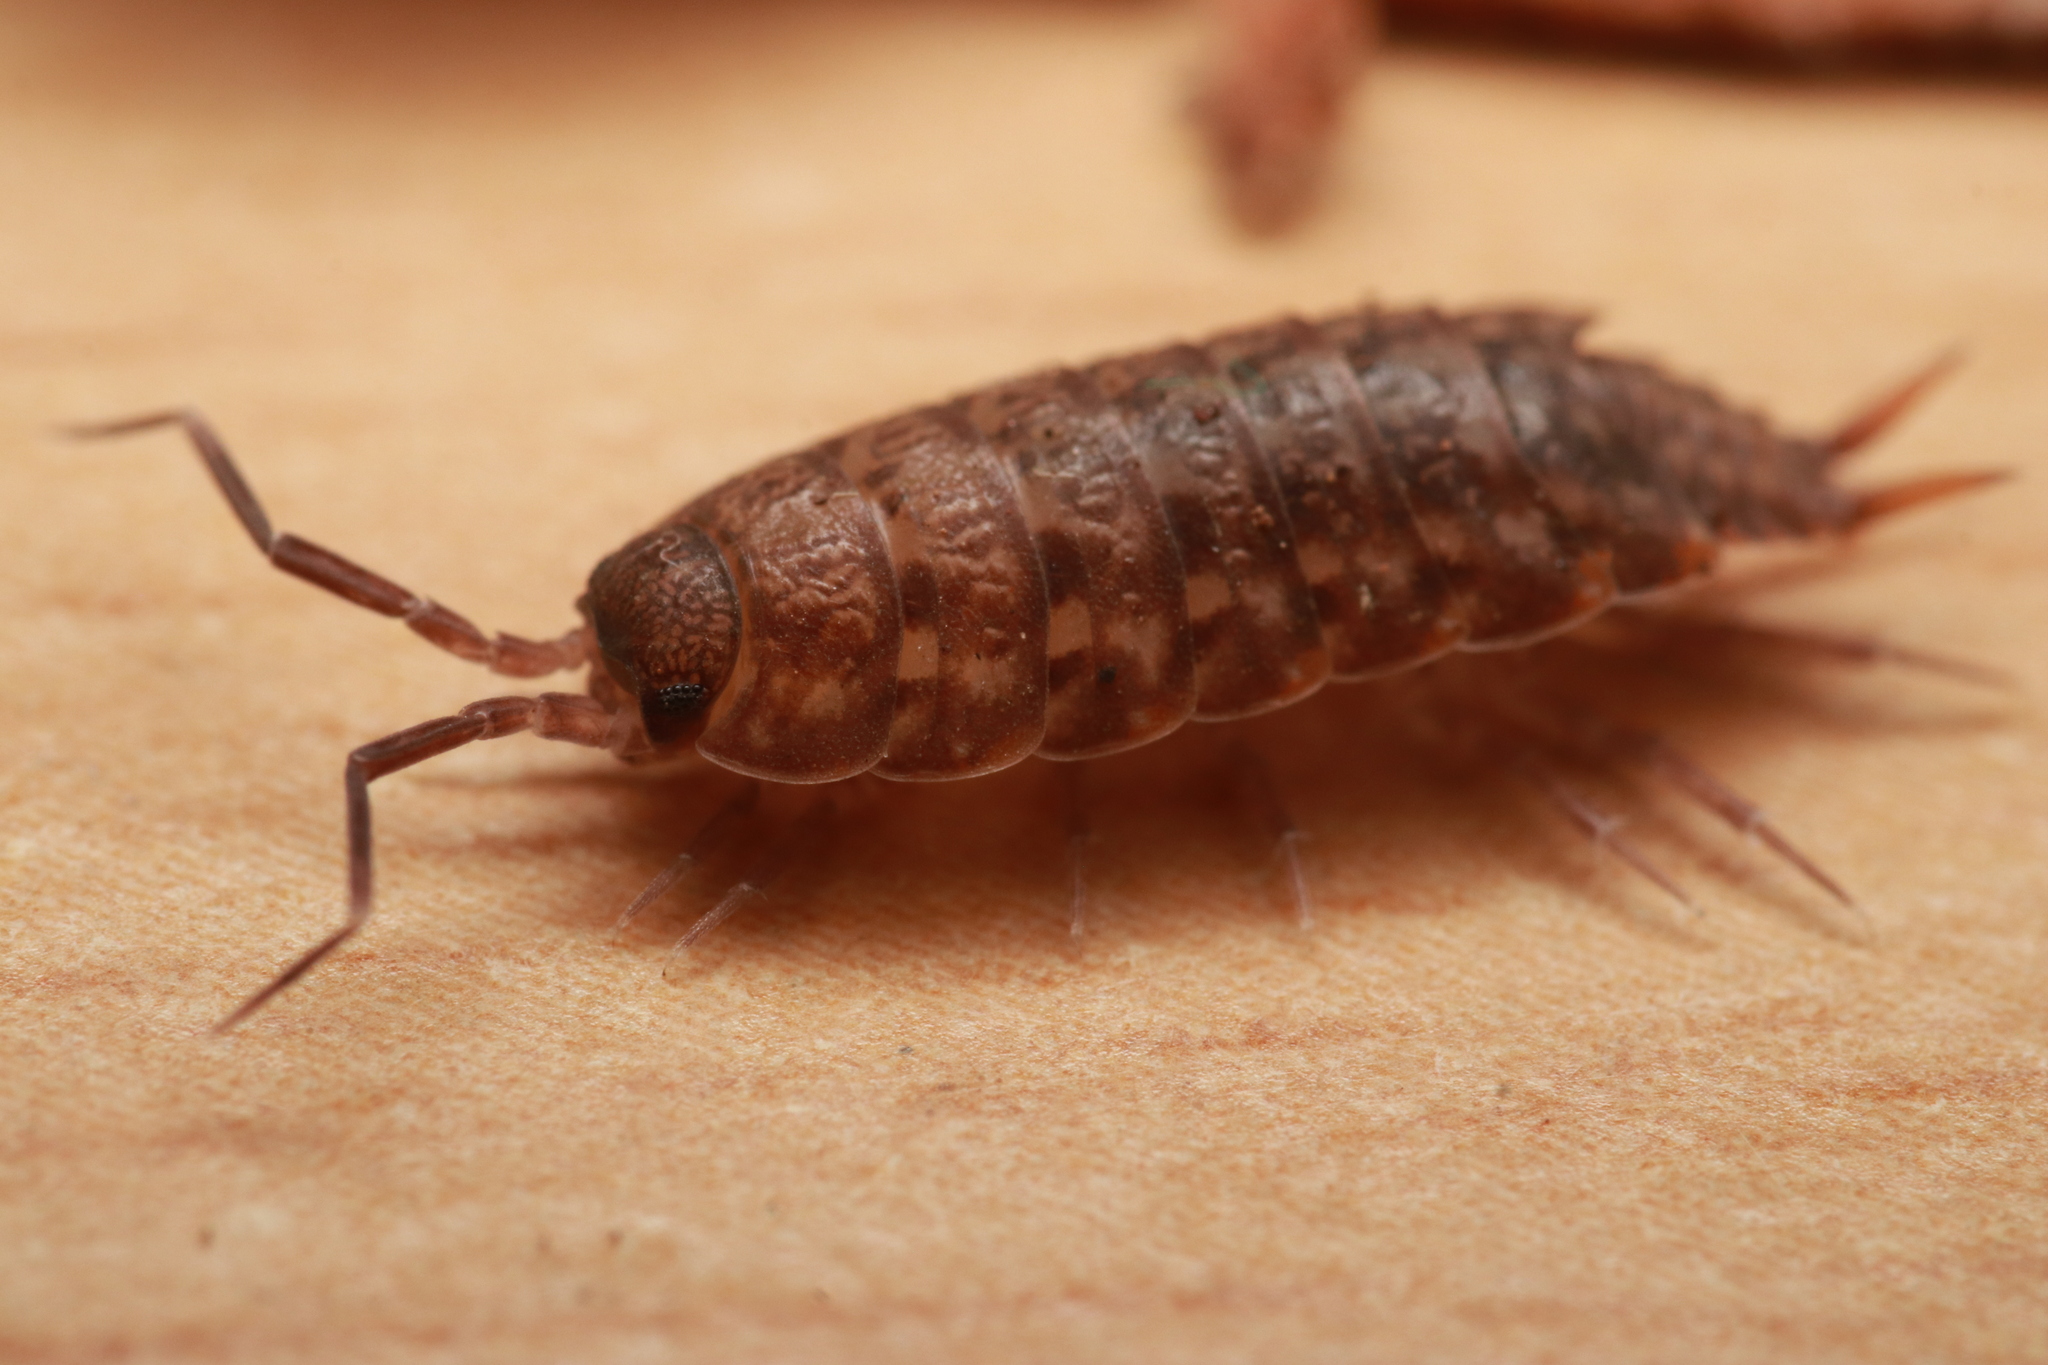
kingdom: Animalia
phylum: Arthropoda
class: Malacostraca
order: Isopoda
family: Agnaridae
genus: Orthometopon
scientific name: Orthometopon planum
